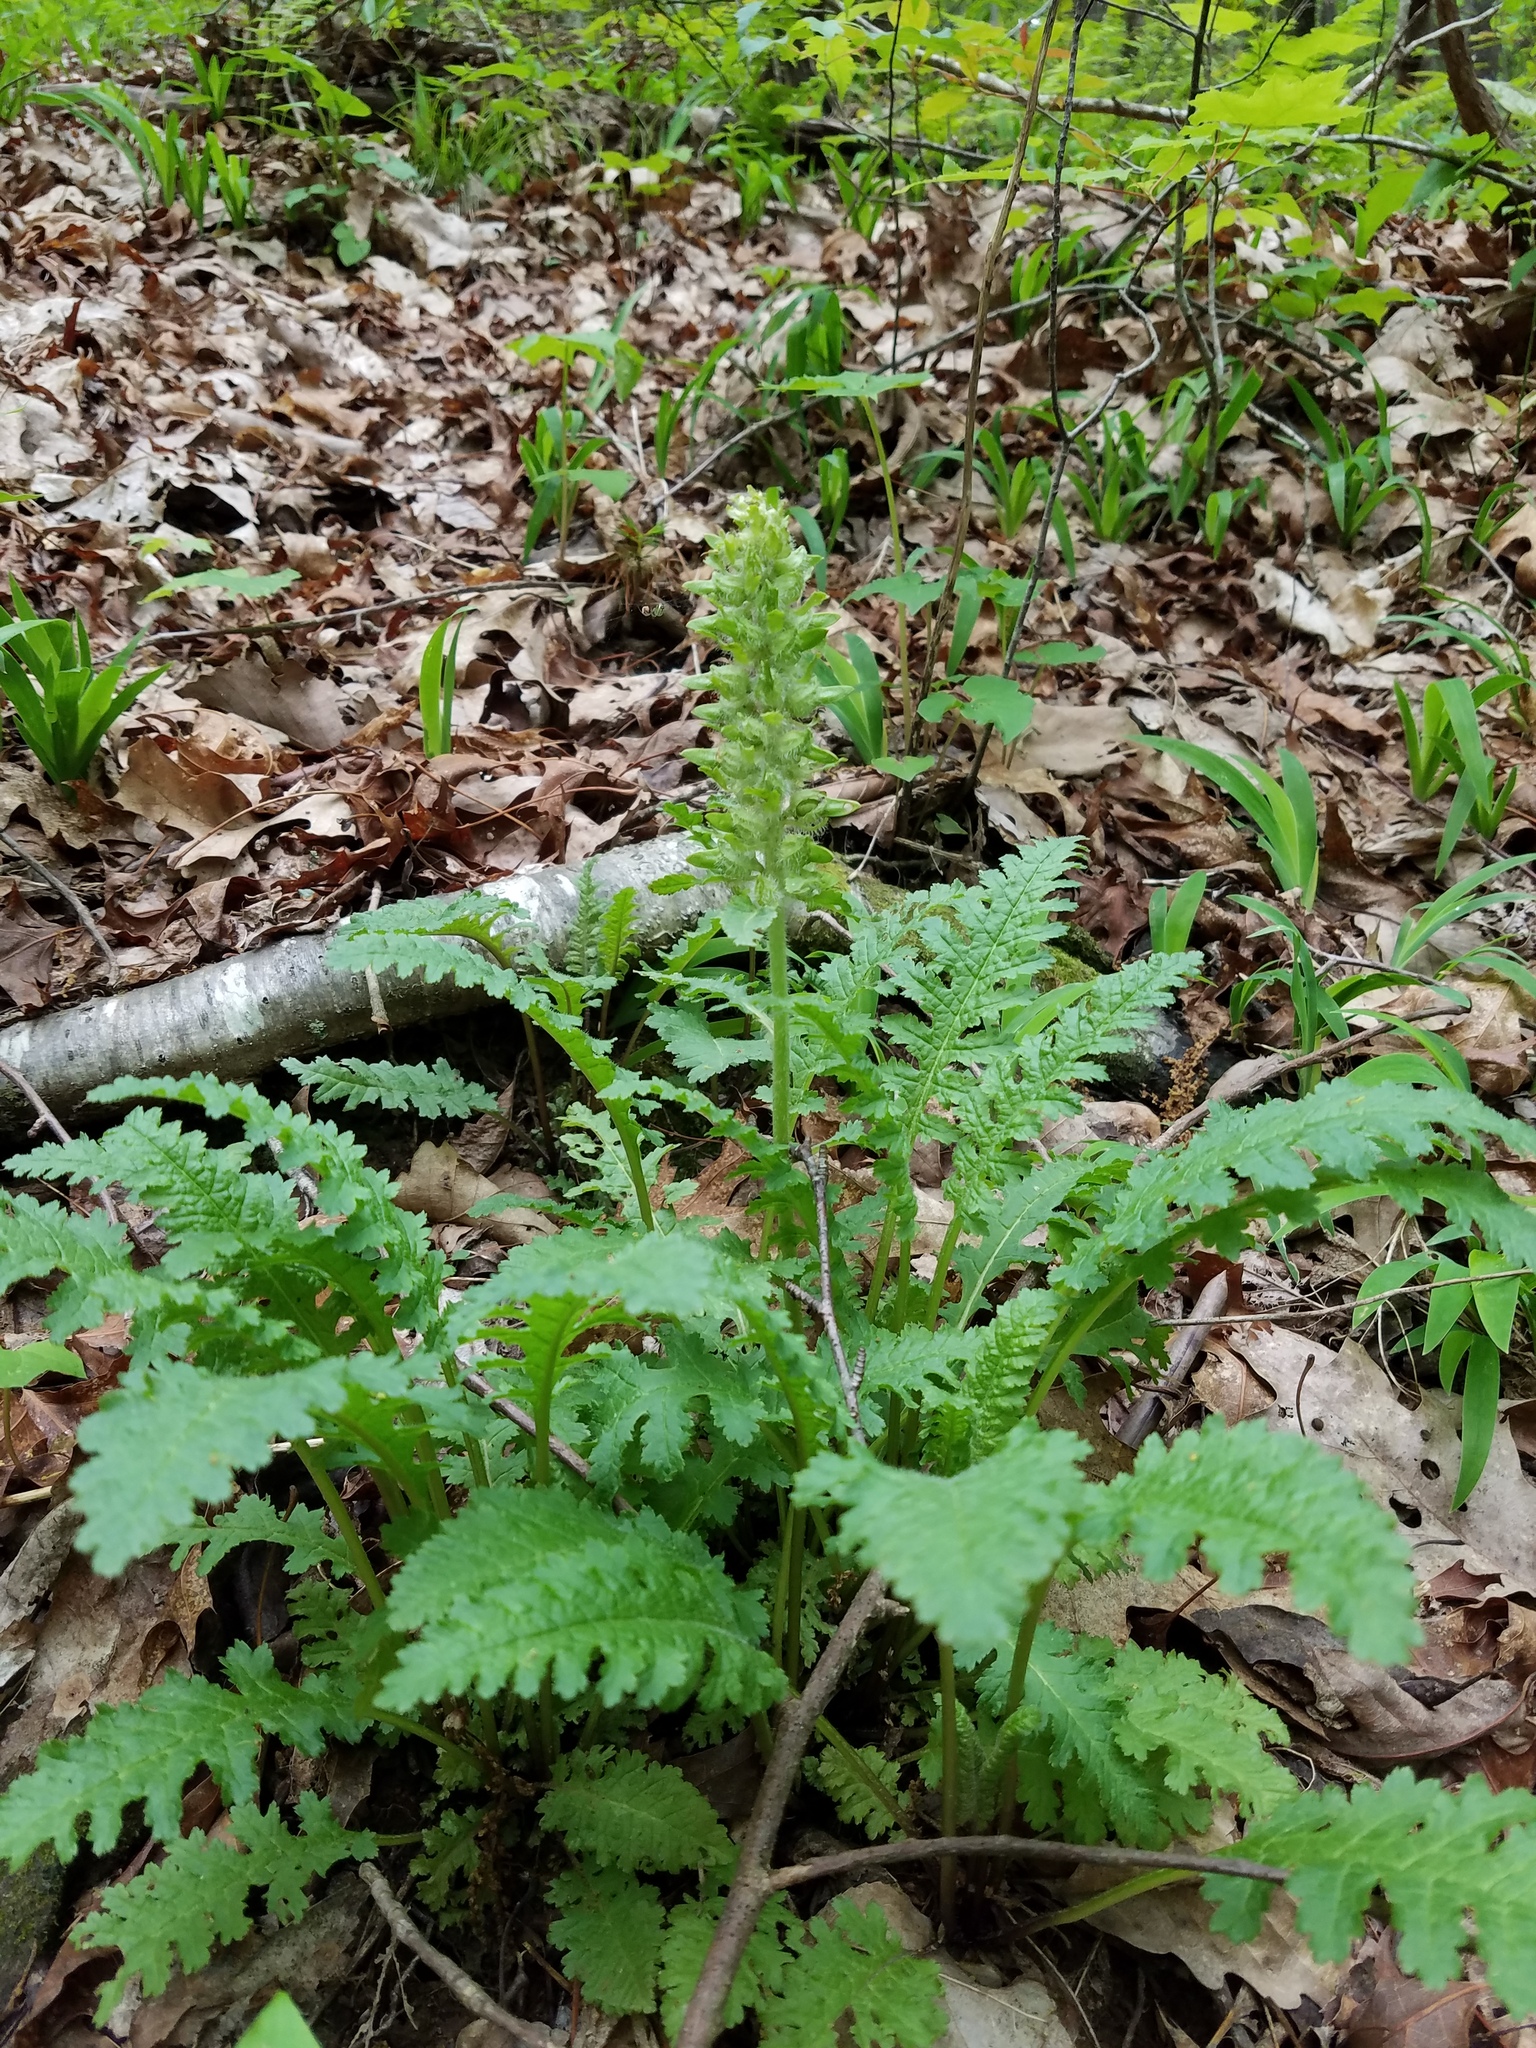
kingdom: Plantae
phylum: Tracheophyta
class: Magnoliopsida
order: Lamiales
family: Orobanchaceae
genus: Pedicularis
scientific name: Pedicularis canadensis
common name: Early lousewort
